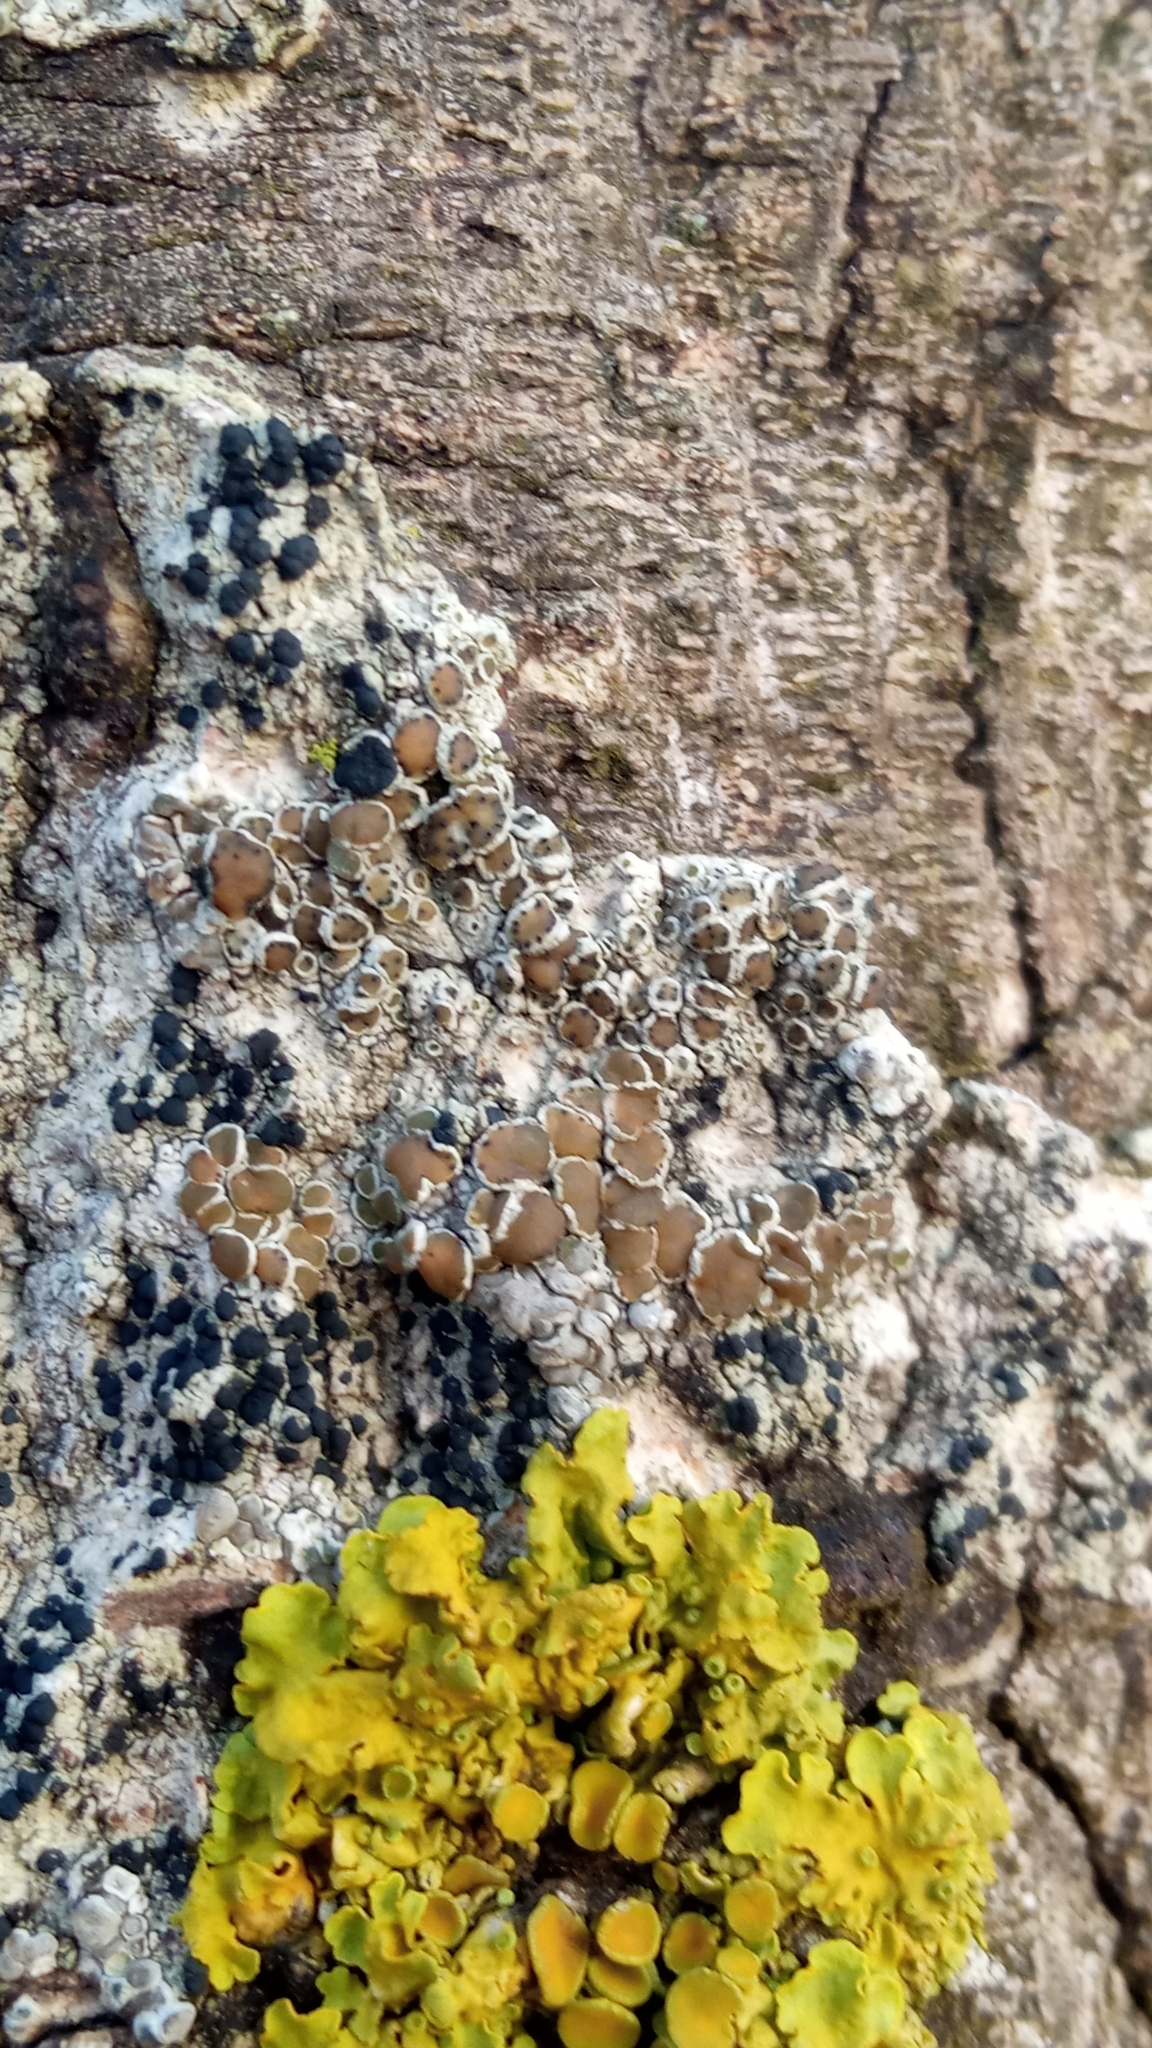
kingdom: Fungi
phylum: Ascomycota
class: Lecanoromycetes
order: Lecanorales
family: Lecanoraceae
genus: Lecanora
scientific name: Lecanora
